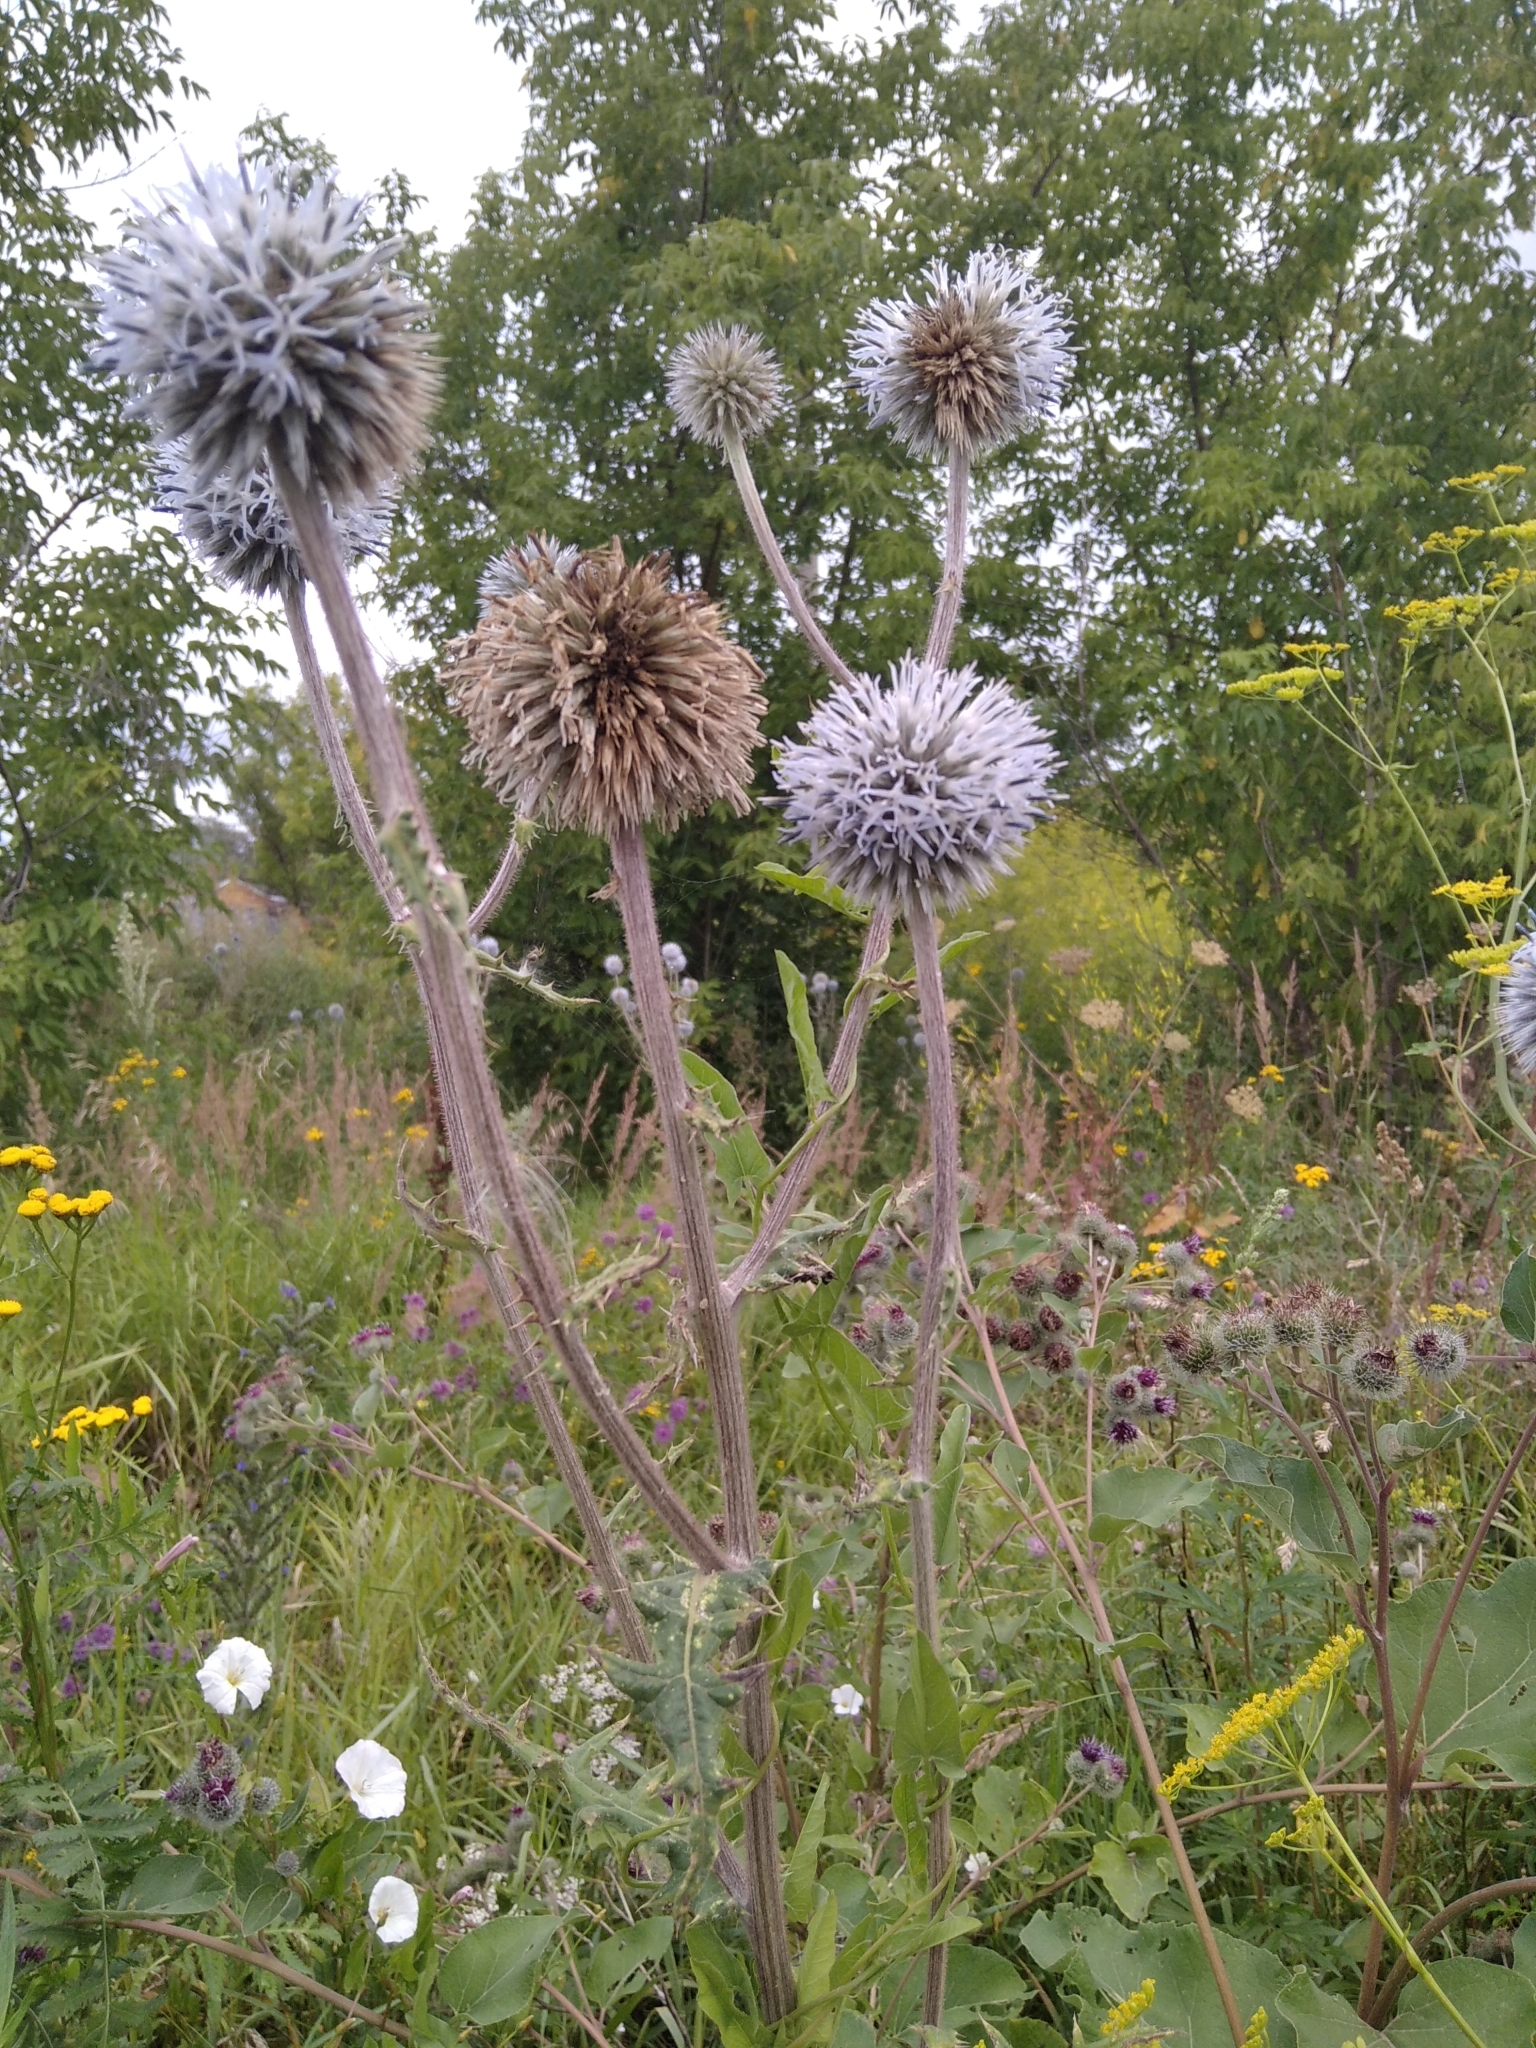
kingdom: Plantae
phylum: Tracheophyta
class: Magnoliopsida
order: Asterales
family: Asteraceae
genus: Echinops
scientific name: Echinops sphaerocephalus
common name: Glandular globe-thistle
